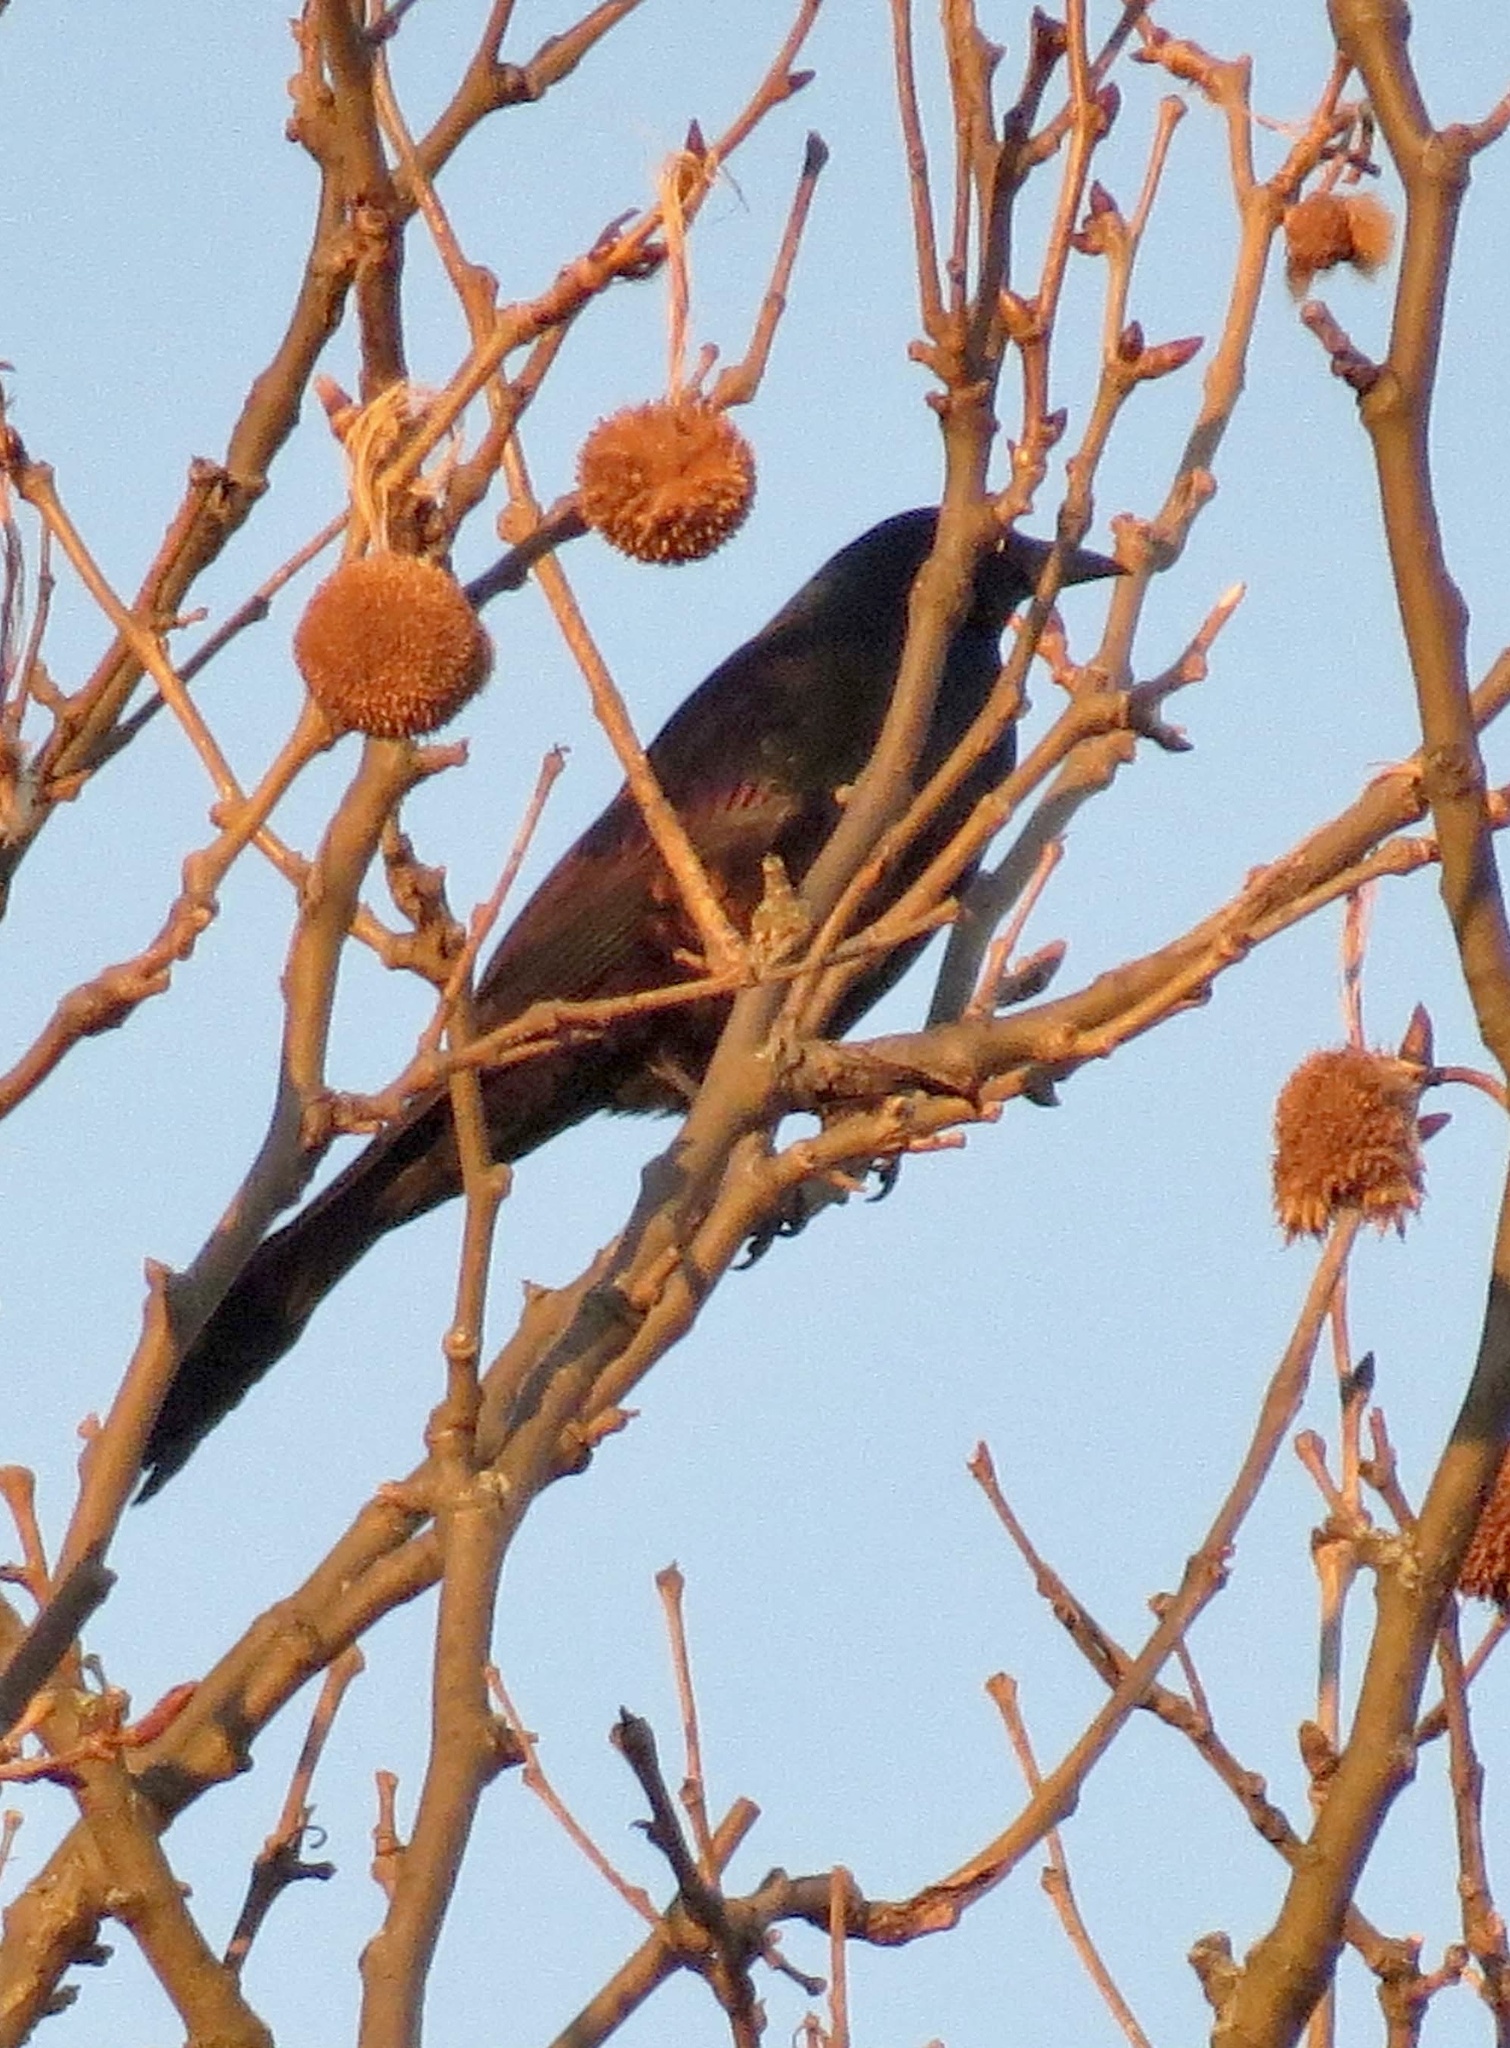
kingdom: Animalia
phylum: Chordata
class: Aves
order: Passeriformes
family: Icteridae
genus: Quiscalus
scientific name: Quiscalus quiscula
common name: Common grackle
